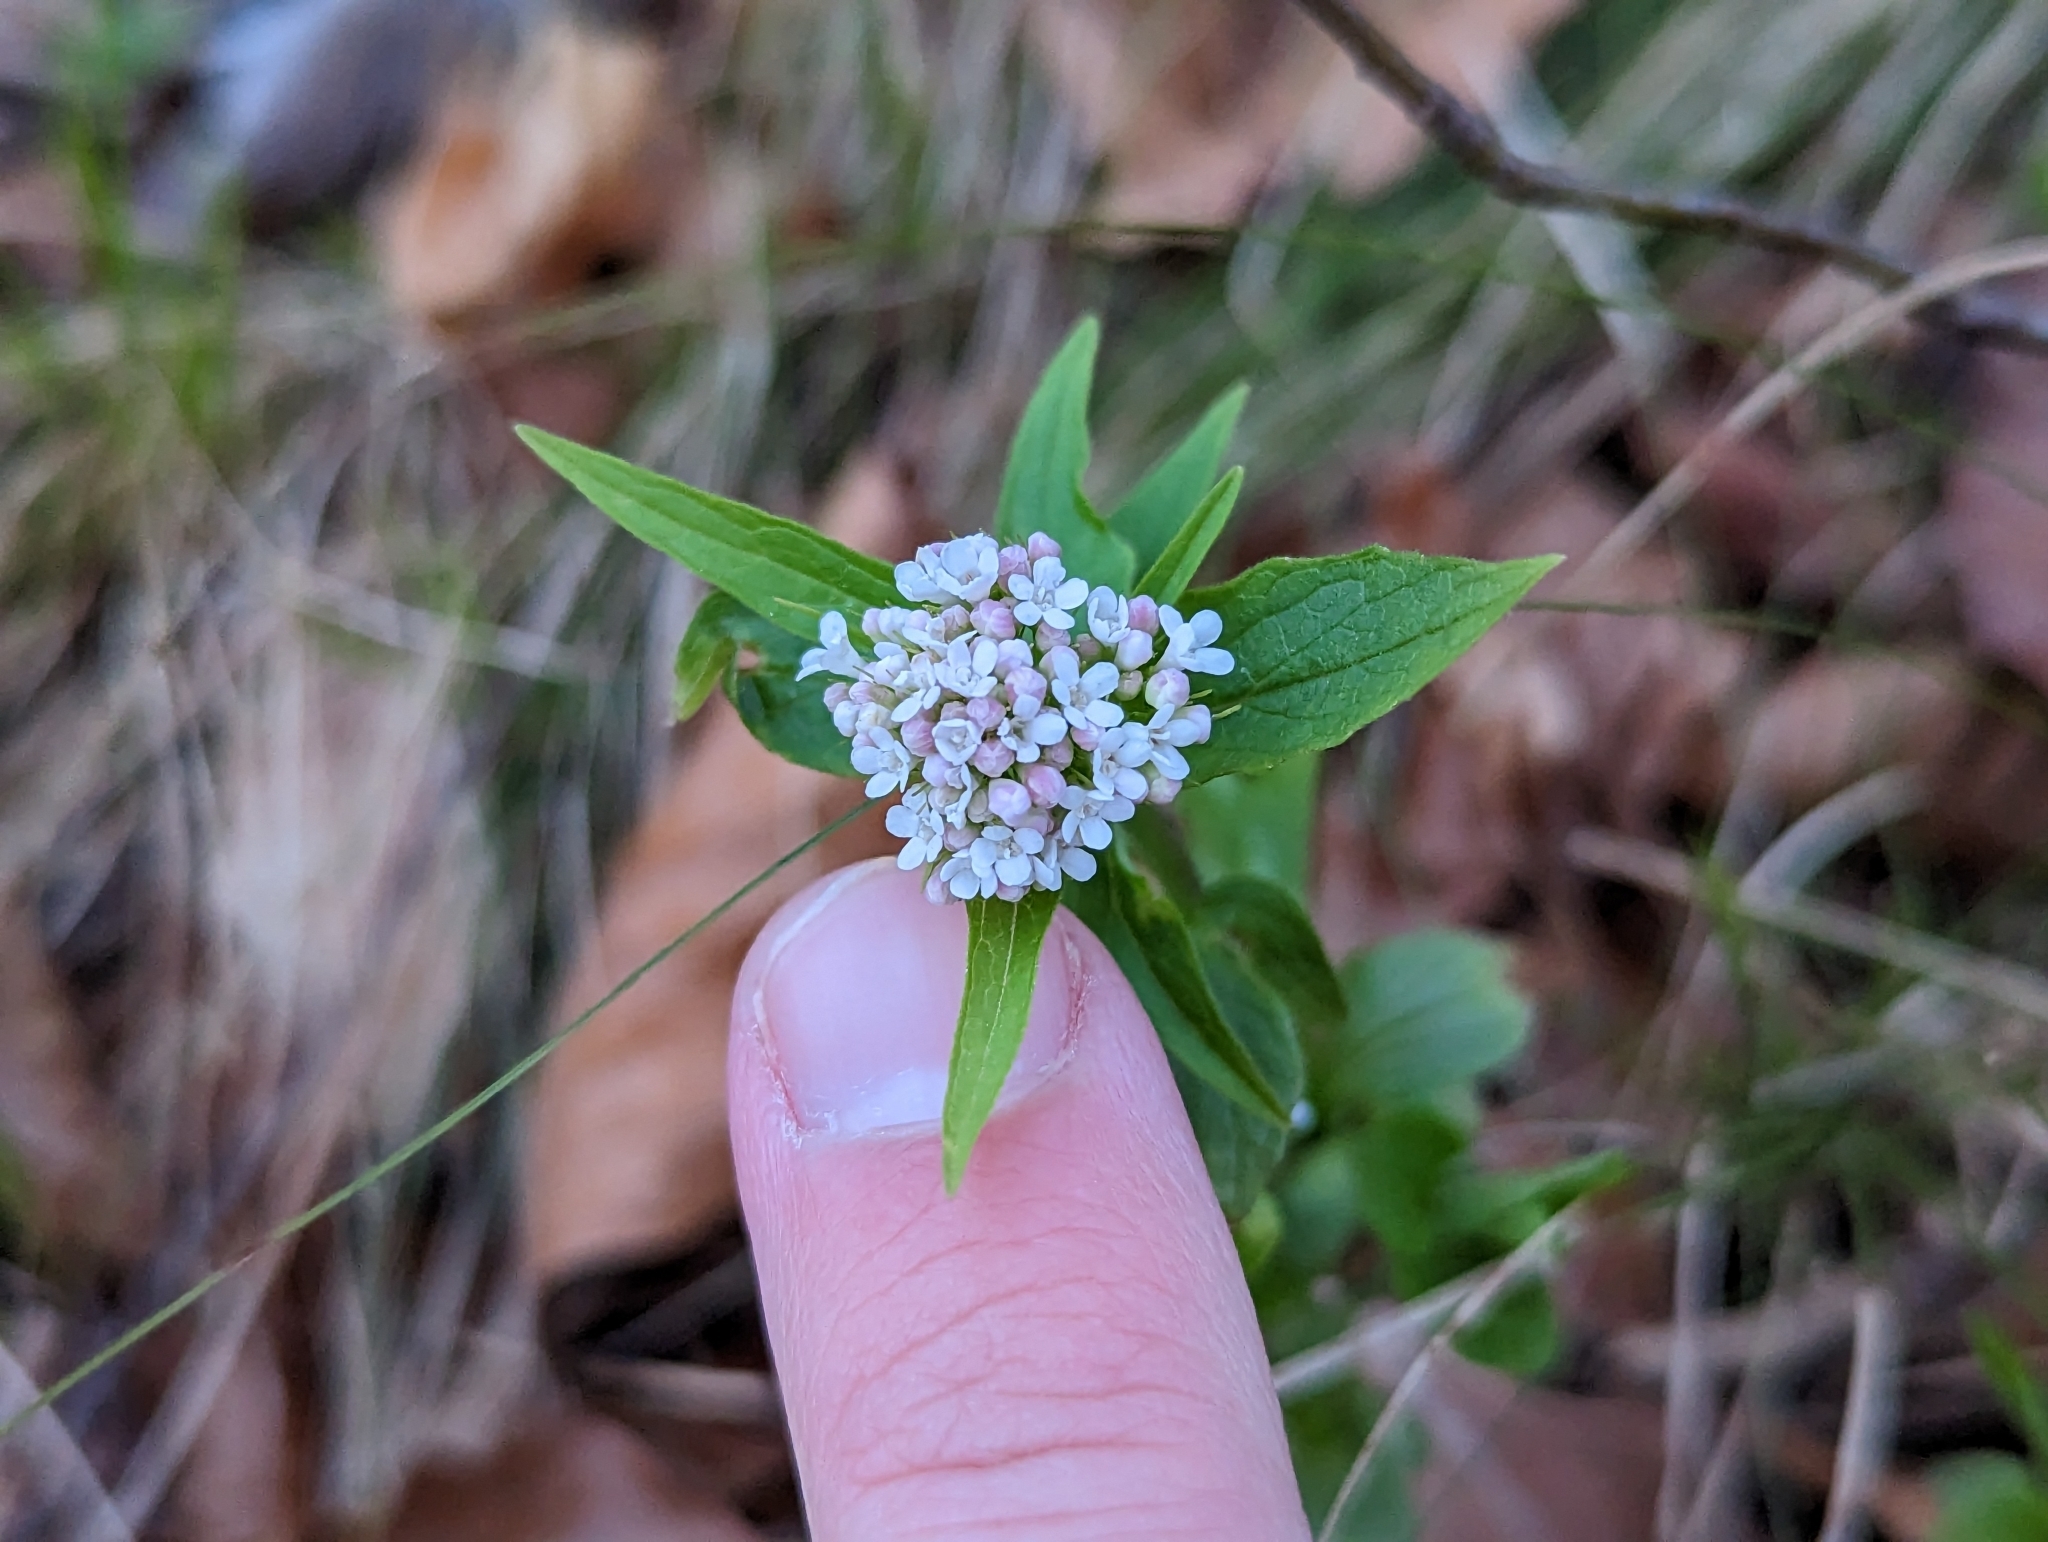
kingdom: Plantae
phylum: Tracheophyta
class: Magnoliopsida
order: Dipsacales
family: Caprifoliaceae
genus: Valeriana
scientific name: Valeriana tripteris
